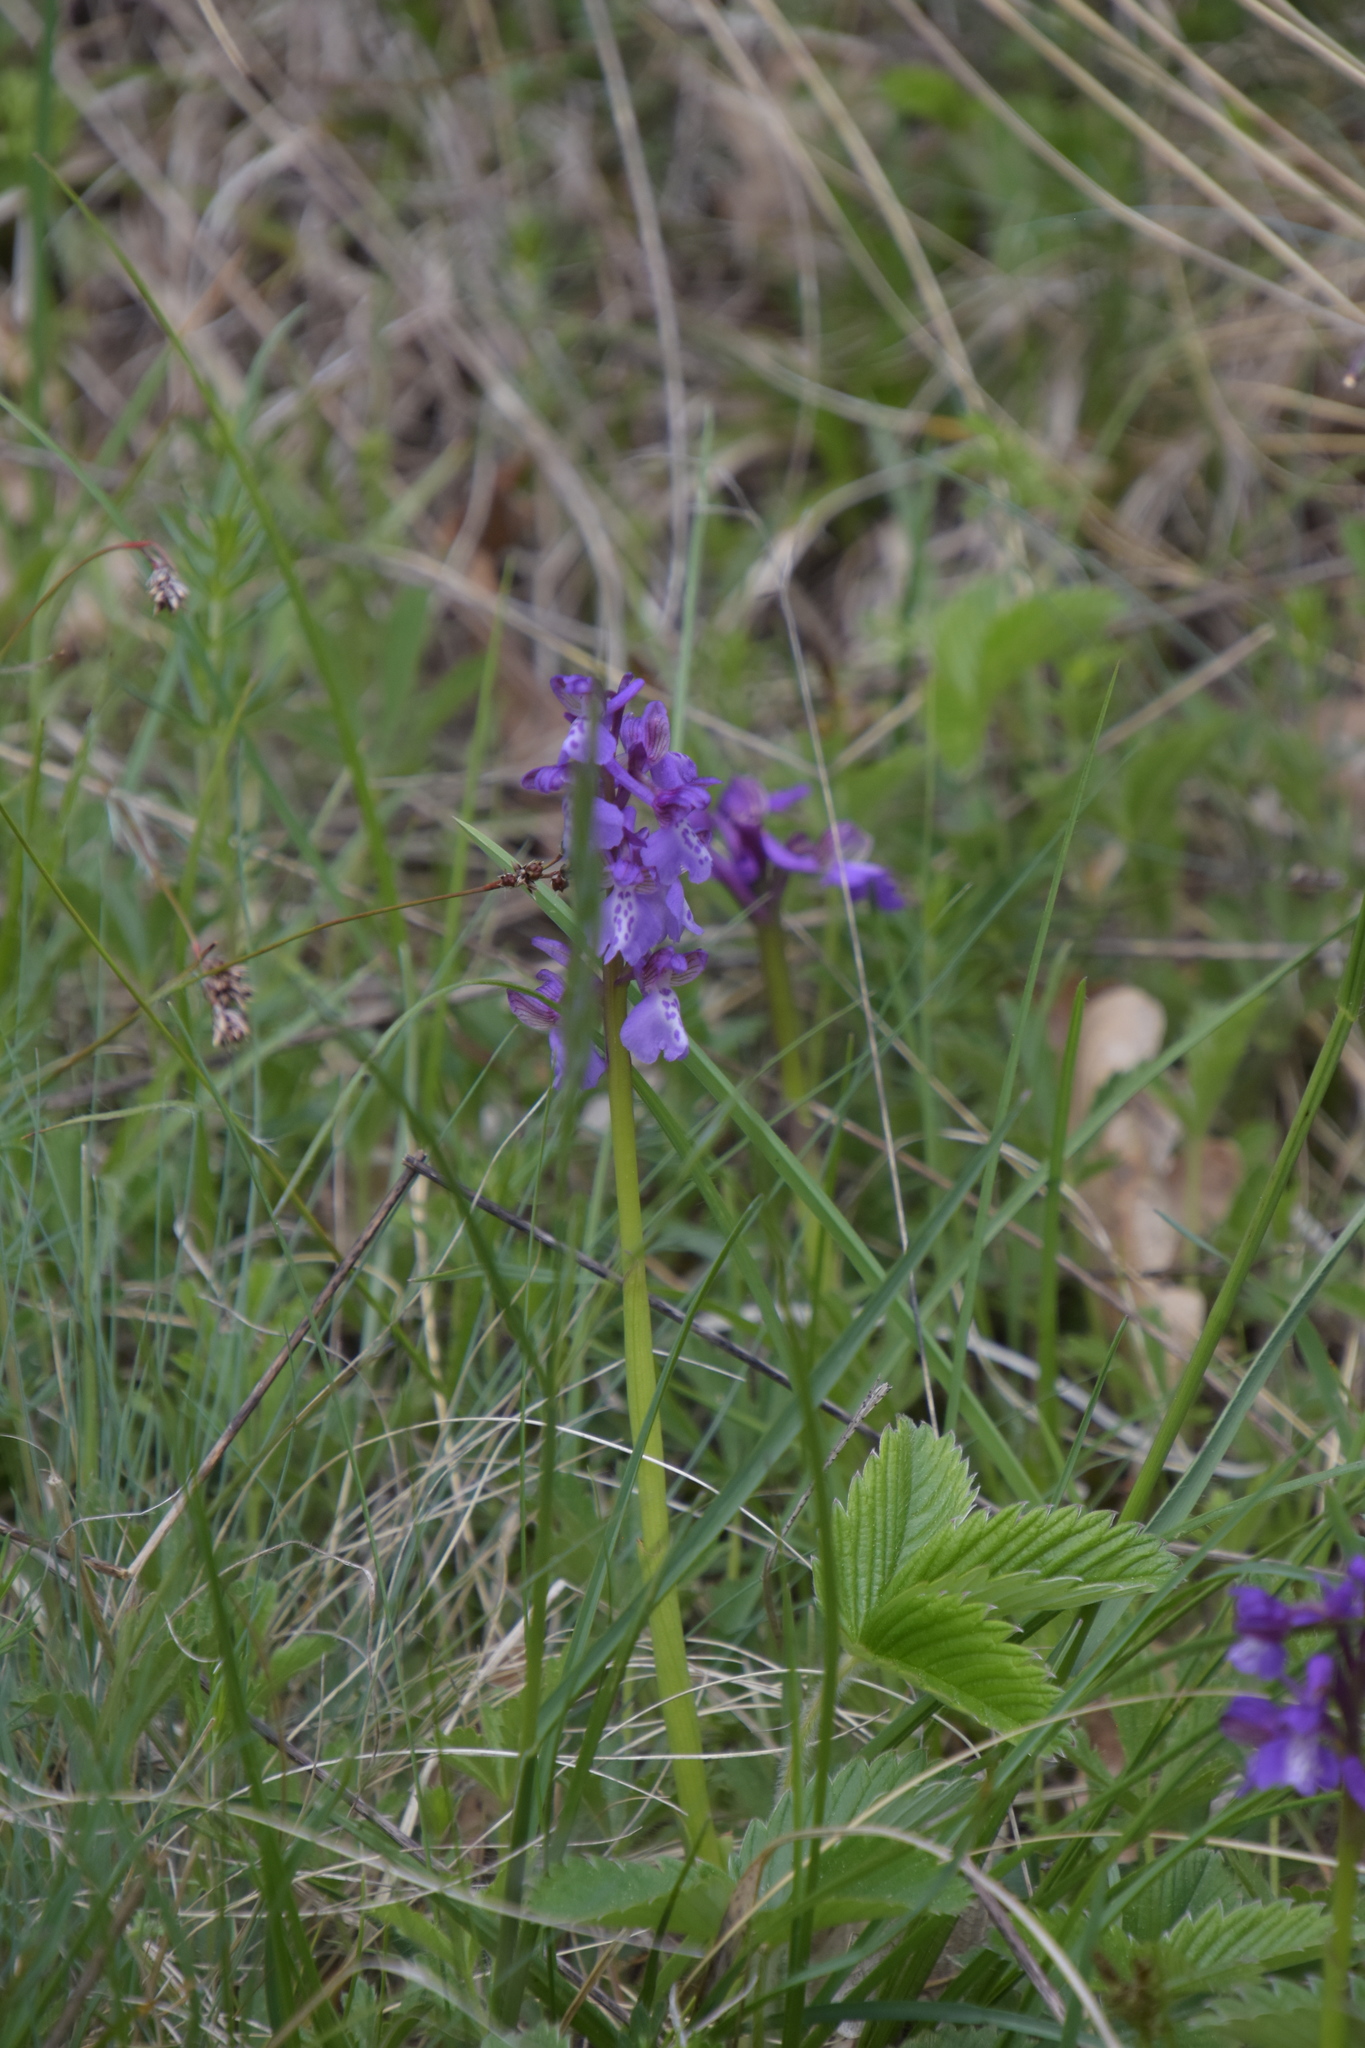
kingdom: Plantae
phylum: Tracheophyta
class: Liliopsida
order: Asparagales
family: Orchidaceae
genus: Anacamptis
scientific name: Anacamptis morio
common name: Green-winged orchid
